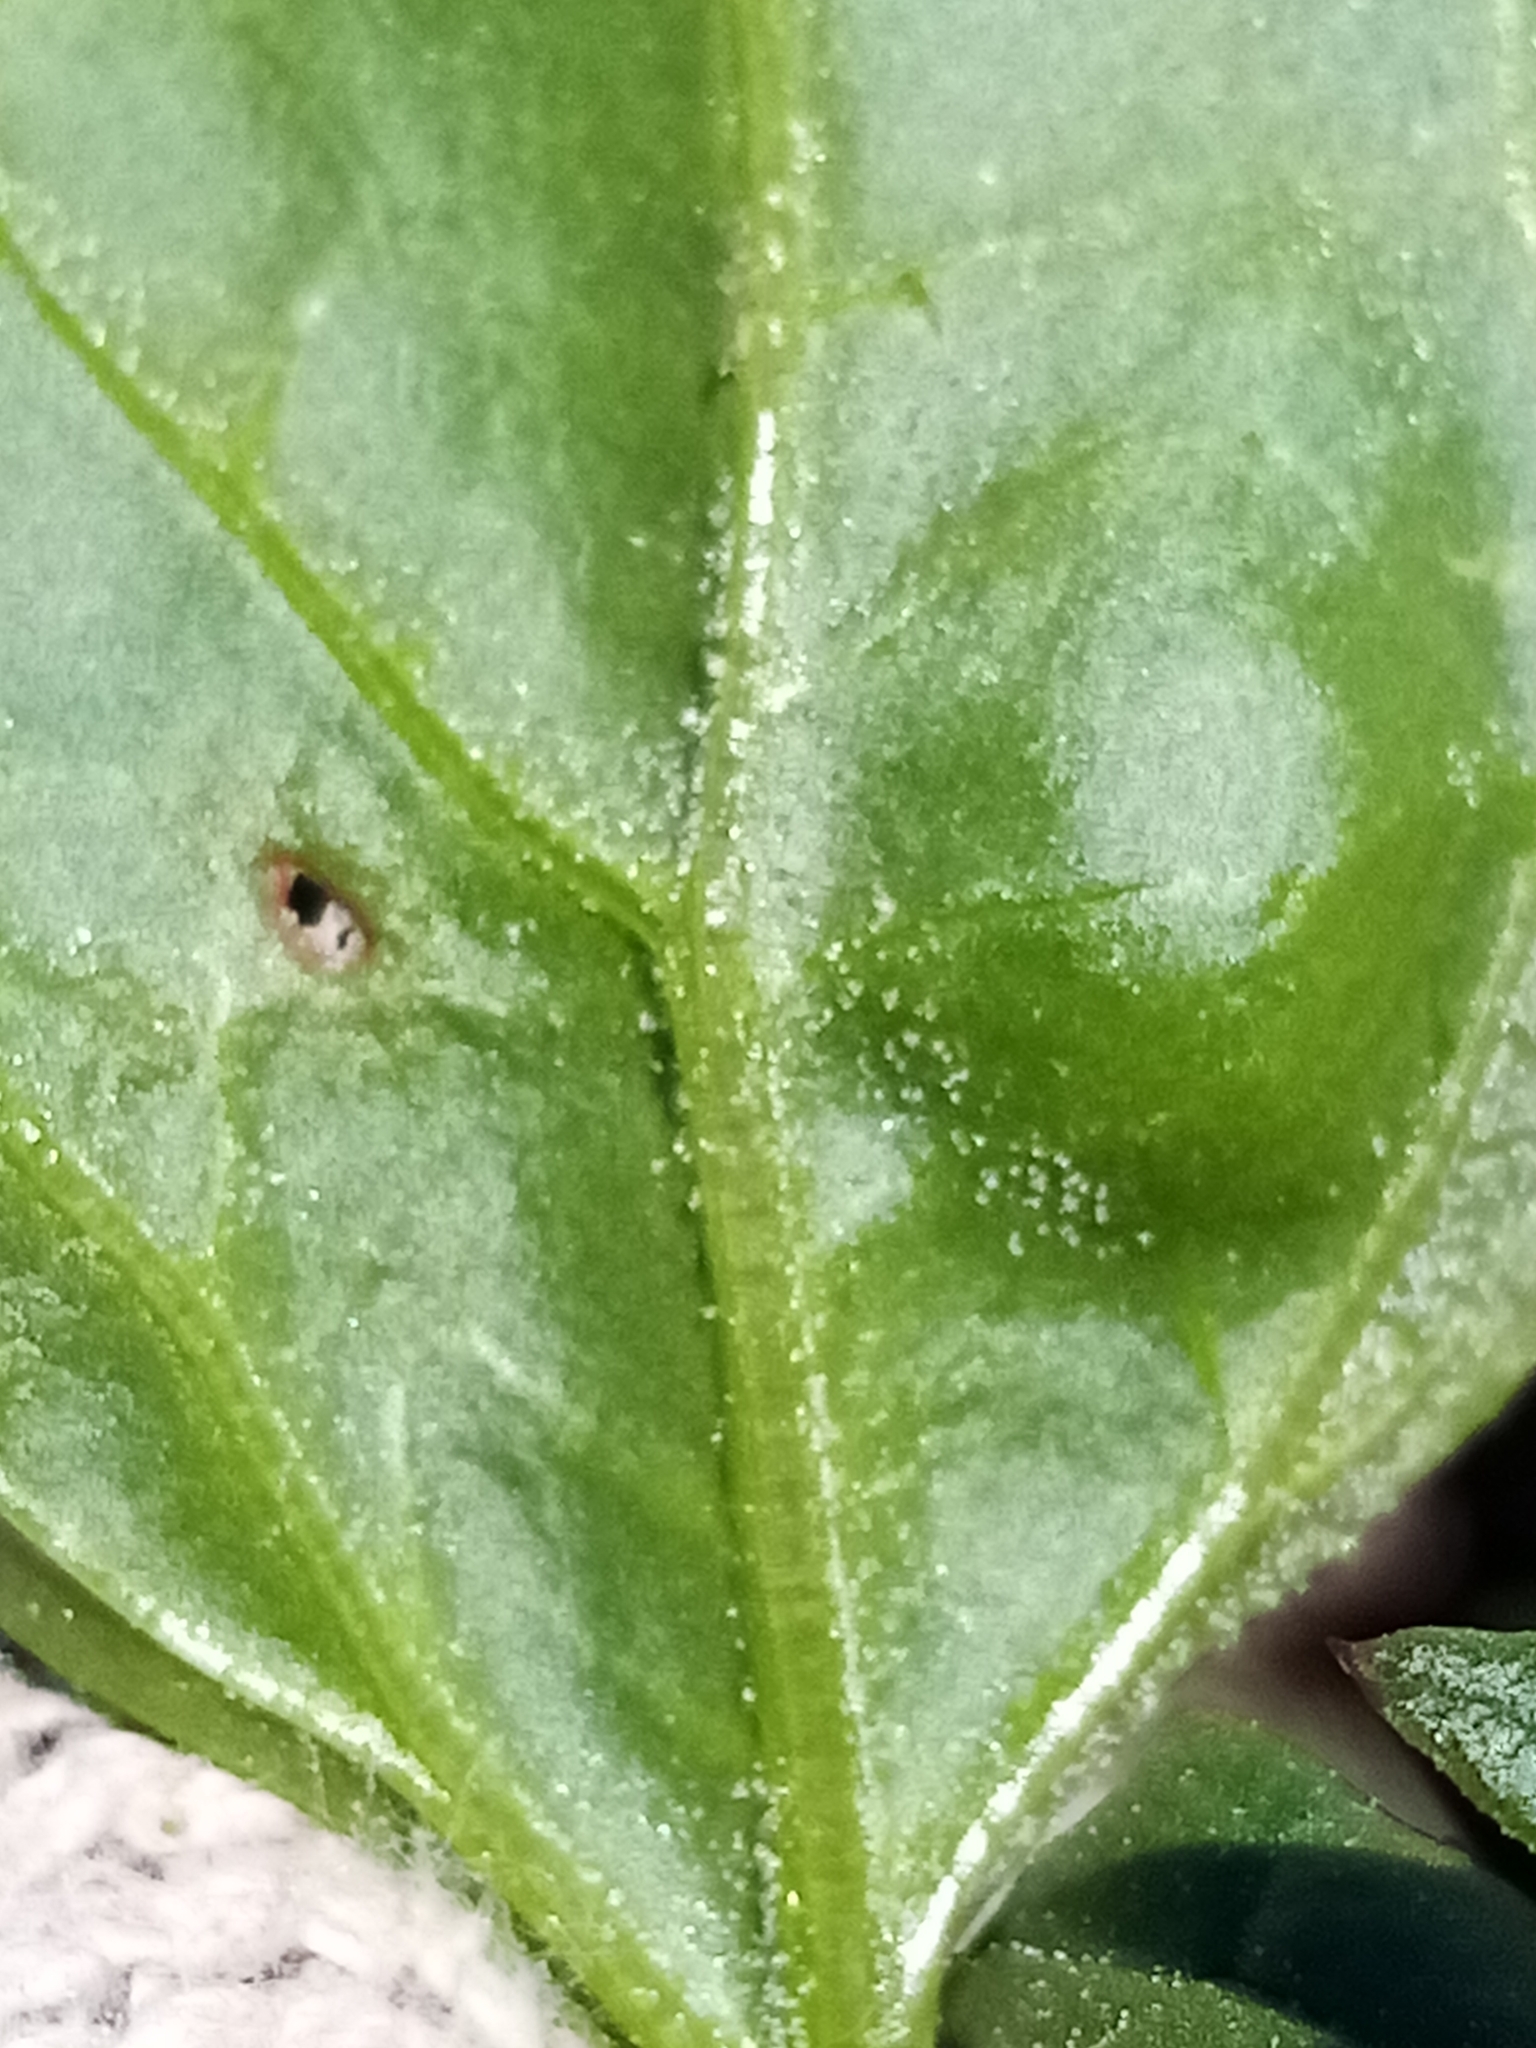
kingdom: Plantae
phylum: Tracheophyta
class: Magnoliopsida
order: Caryophyllales
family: Amaranthaceae
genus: Chenopodiastrum
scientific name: Chenopodiastrum murale
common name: Sowbane
